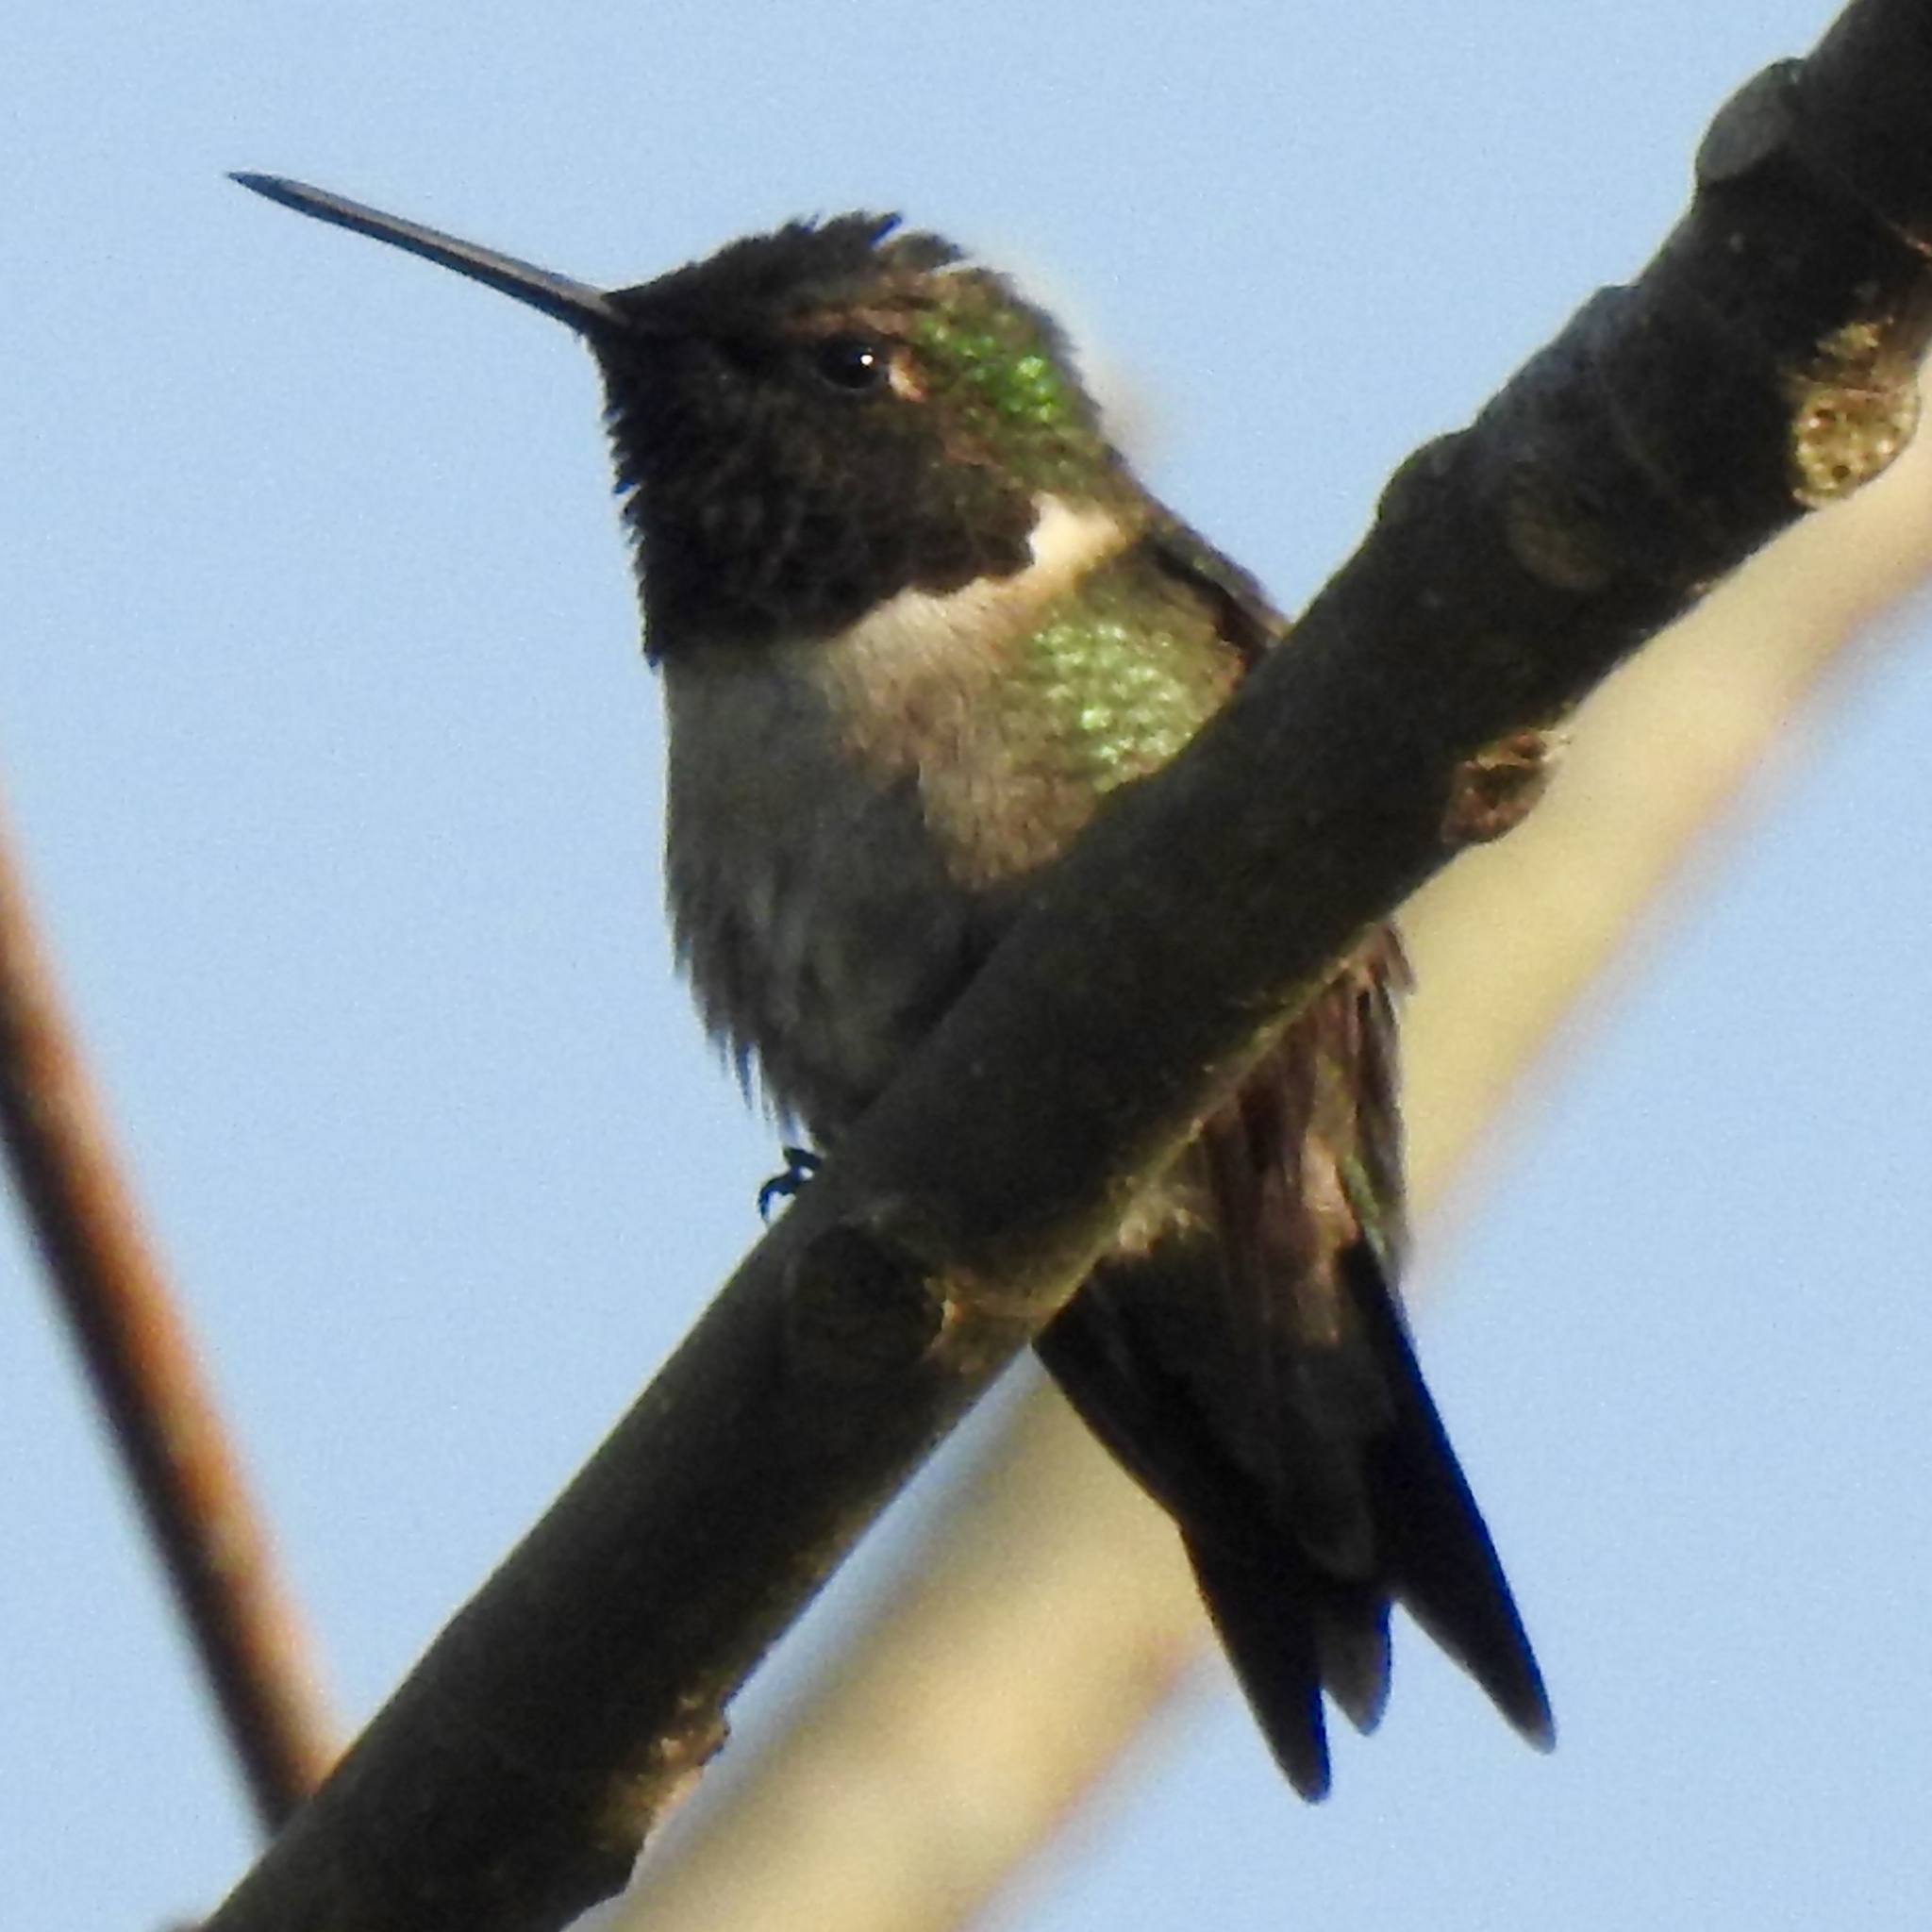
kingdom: Animalia
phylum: Chordata
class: Aves
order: Apodiformes
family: Trochilidae
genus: Archilochus
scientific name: Archilochus colubris
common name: Ruby-throated hummingbird
